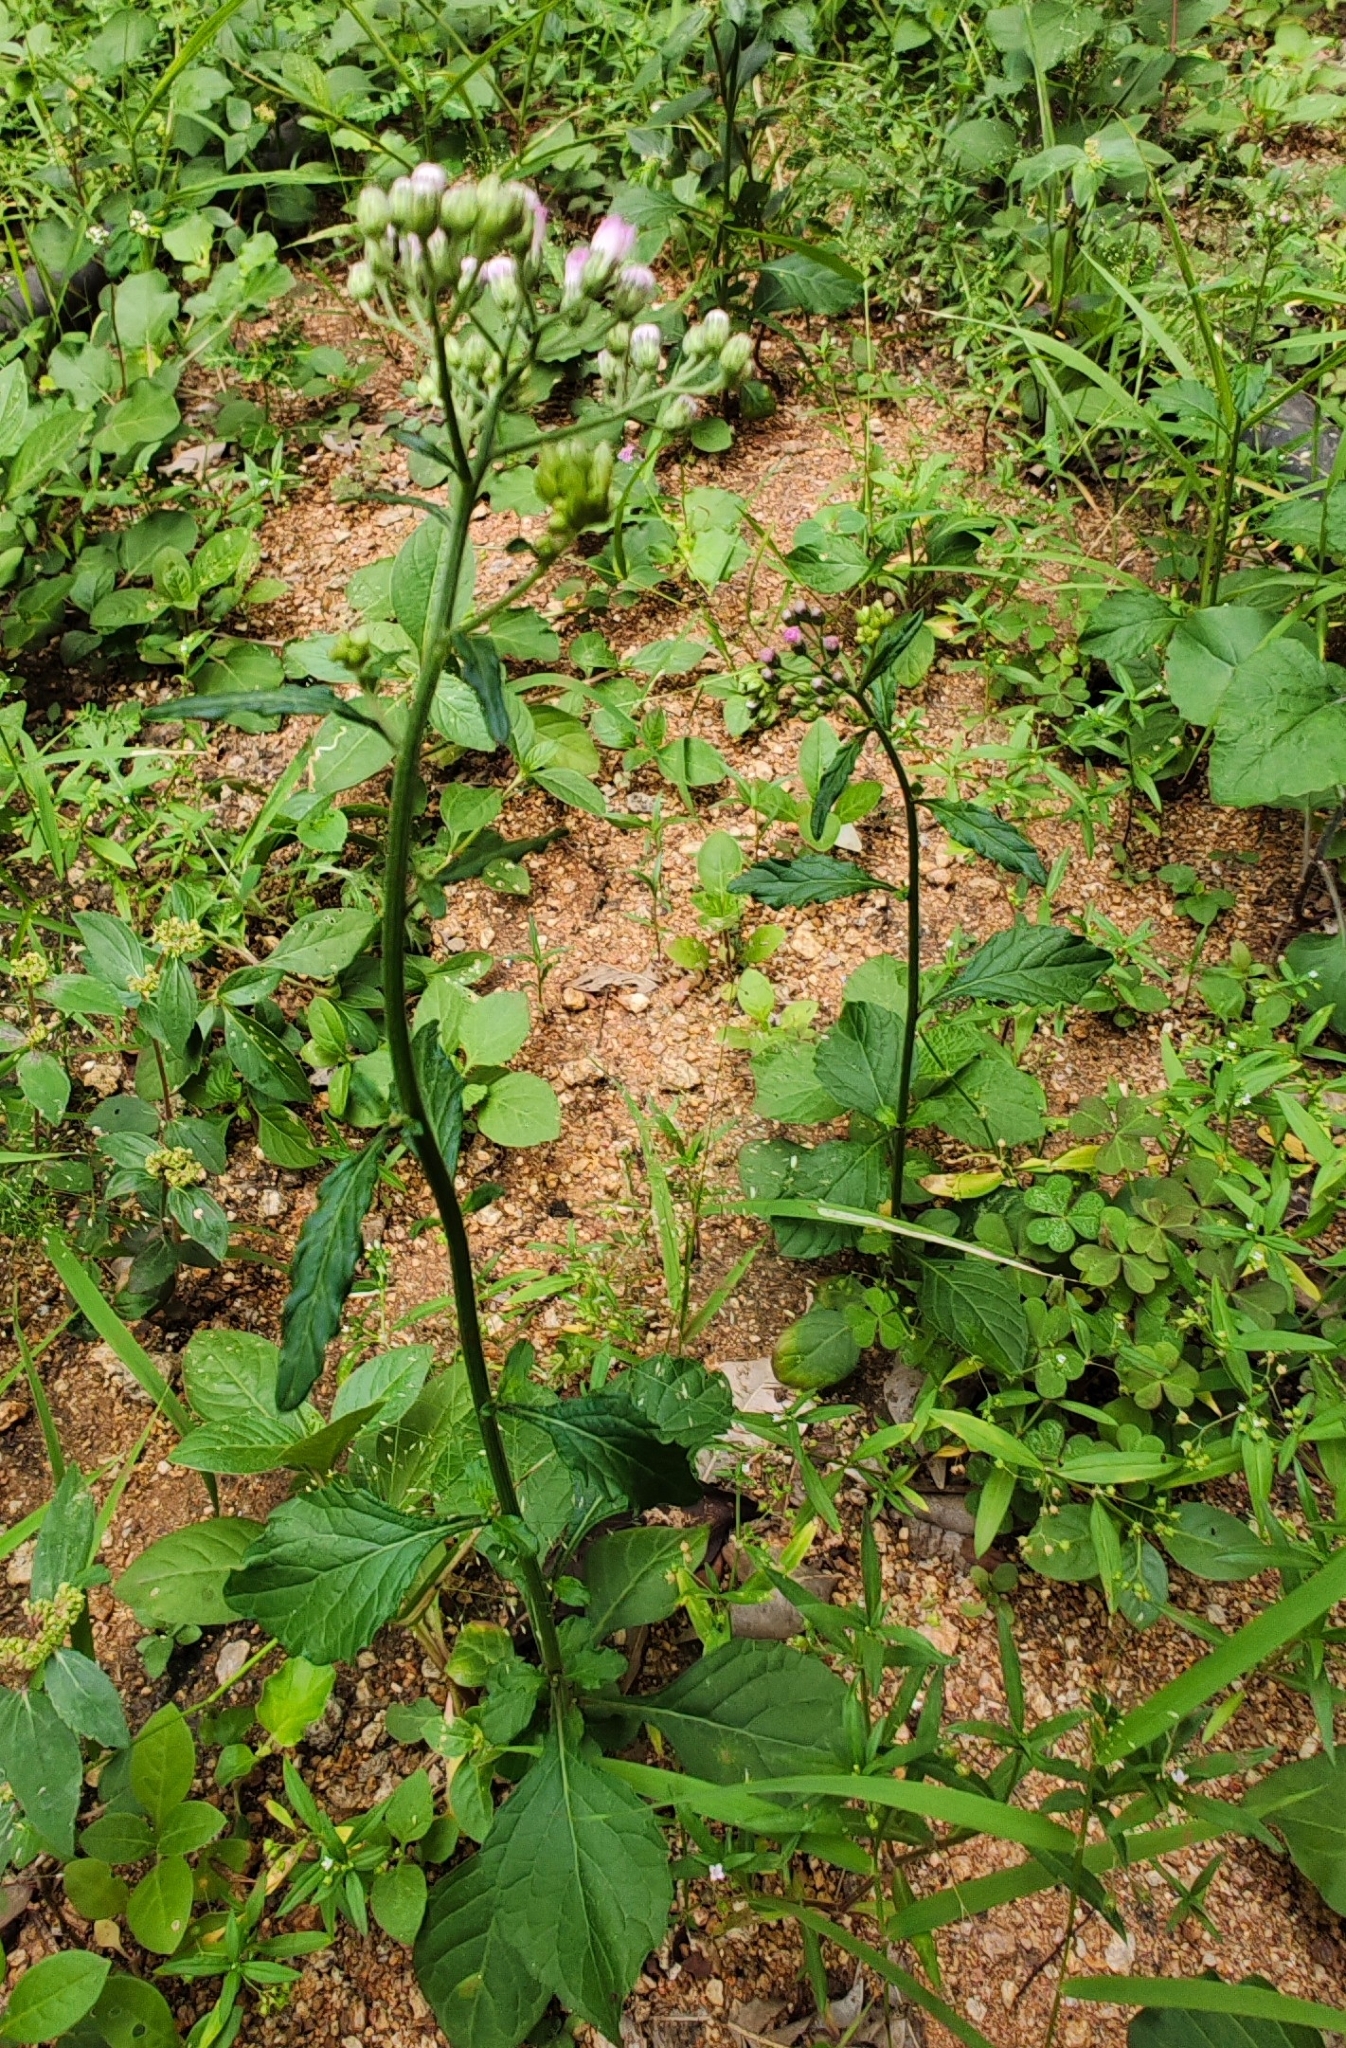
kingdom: Plantae
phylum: Tracheophyta
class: Magnoliopsida
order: Asterales
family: Asteraceae
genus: Cyanthillium
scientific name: Cyanthillium cinereum
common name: Little ironweed
